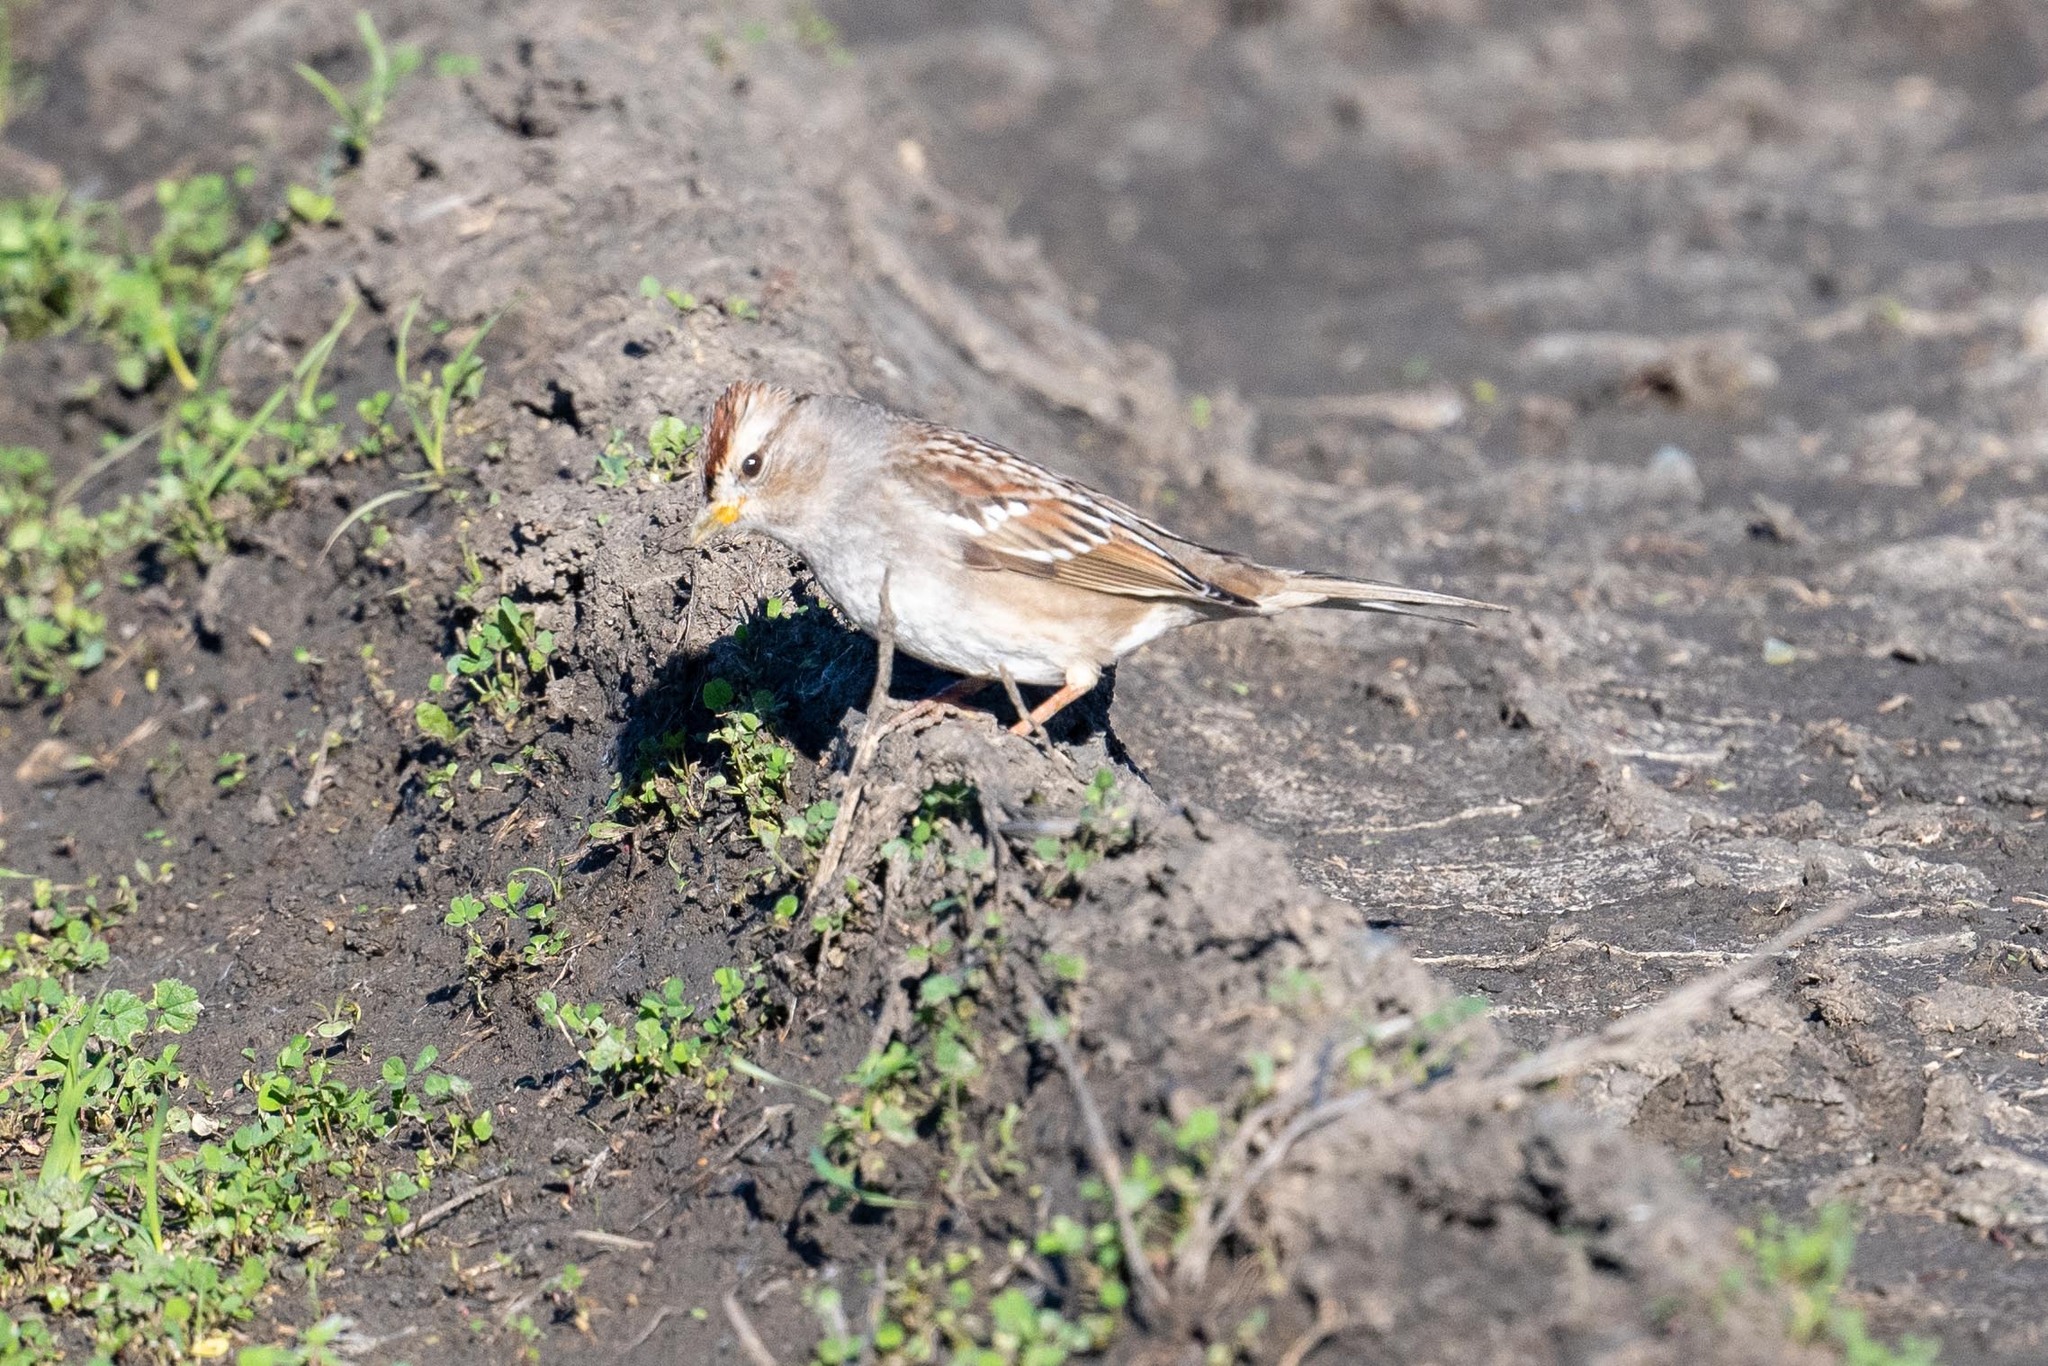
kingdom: Animalia
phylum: Chordata
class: Aves
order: Passeriformes
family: Passerellidae
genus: Zonotrichia
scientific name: Zonotrichia leucophrys
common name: White-crowned sparrow
